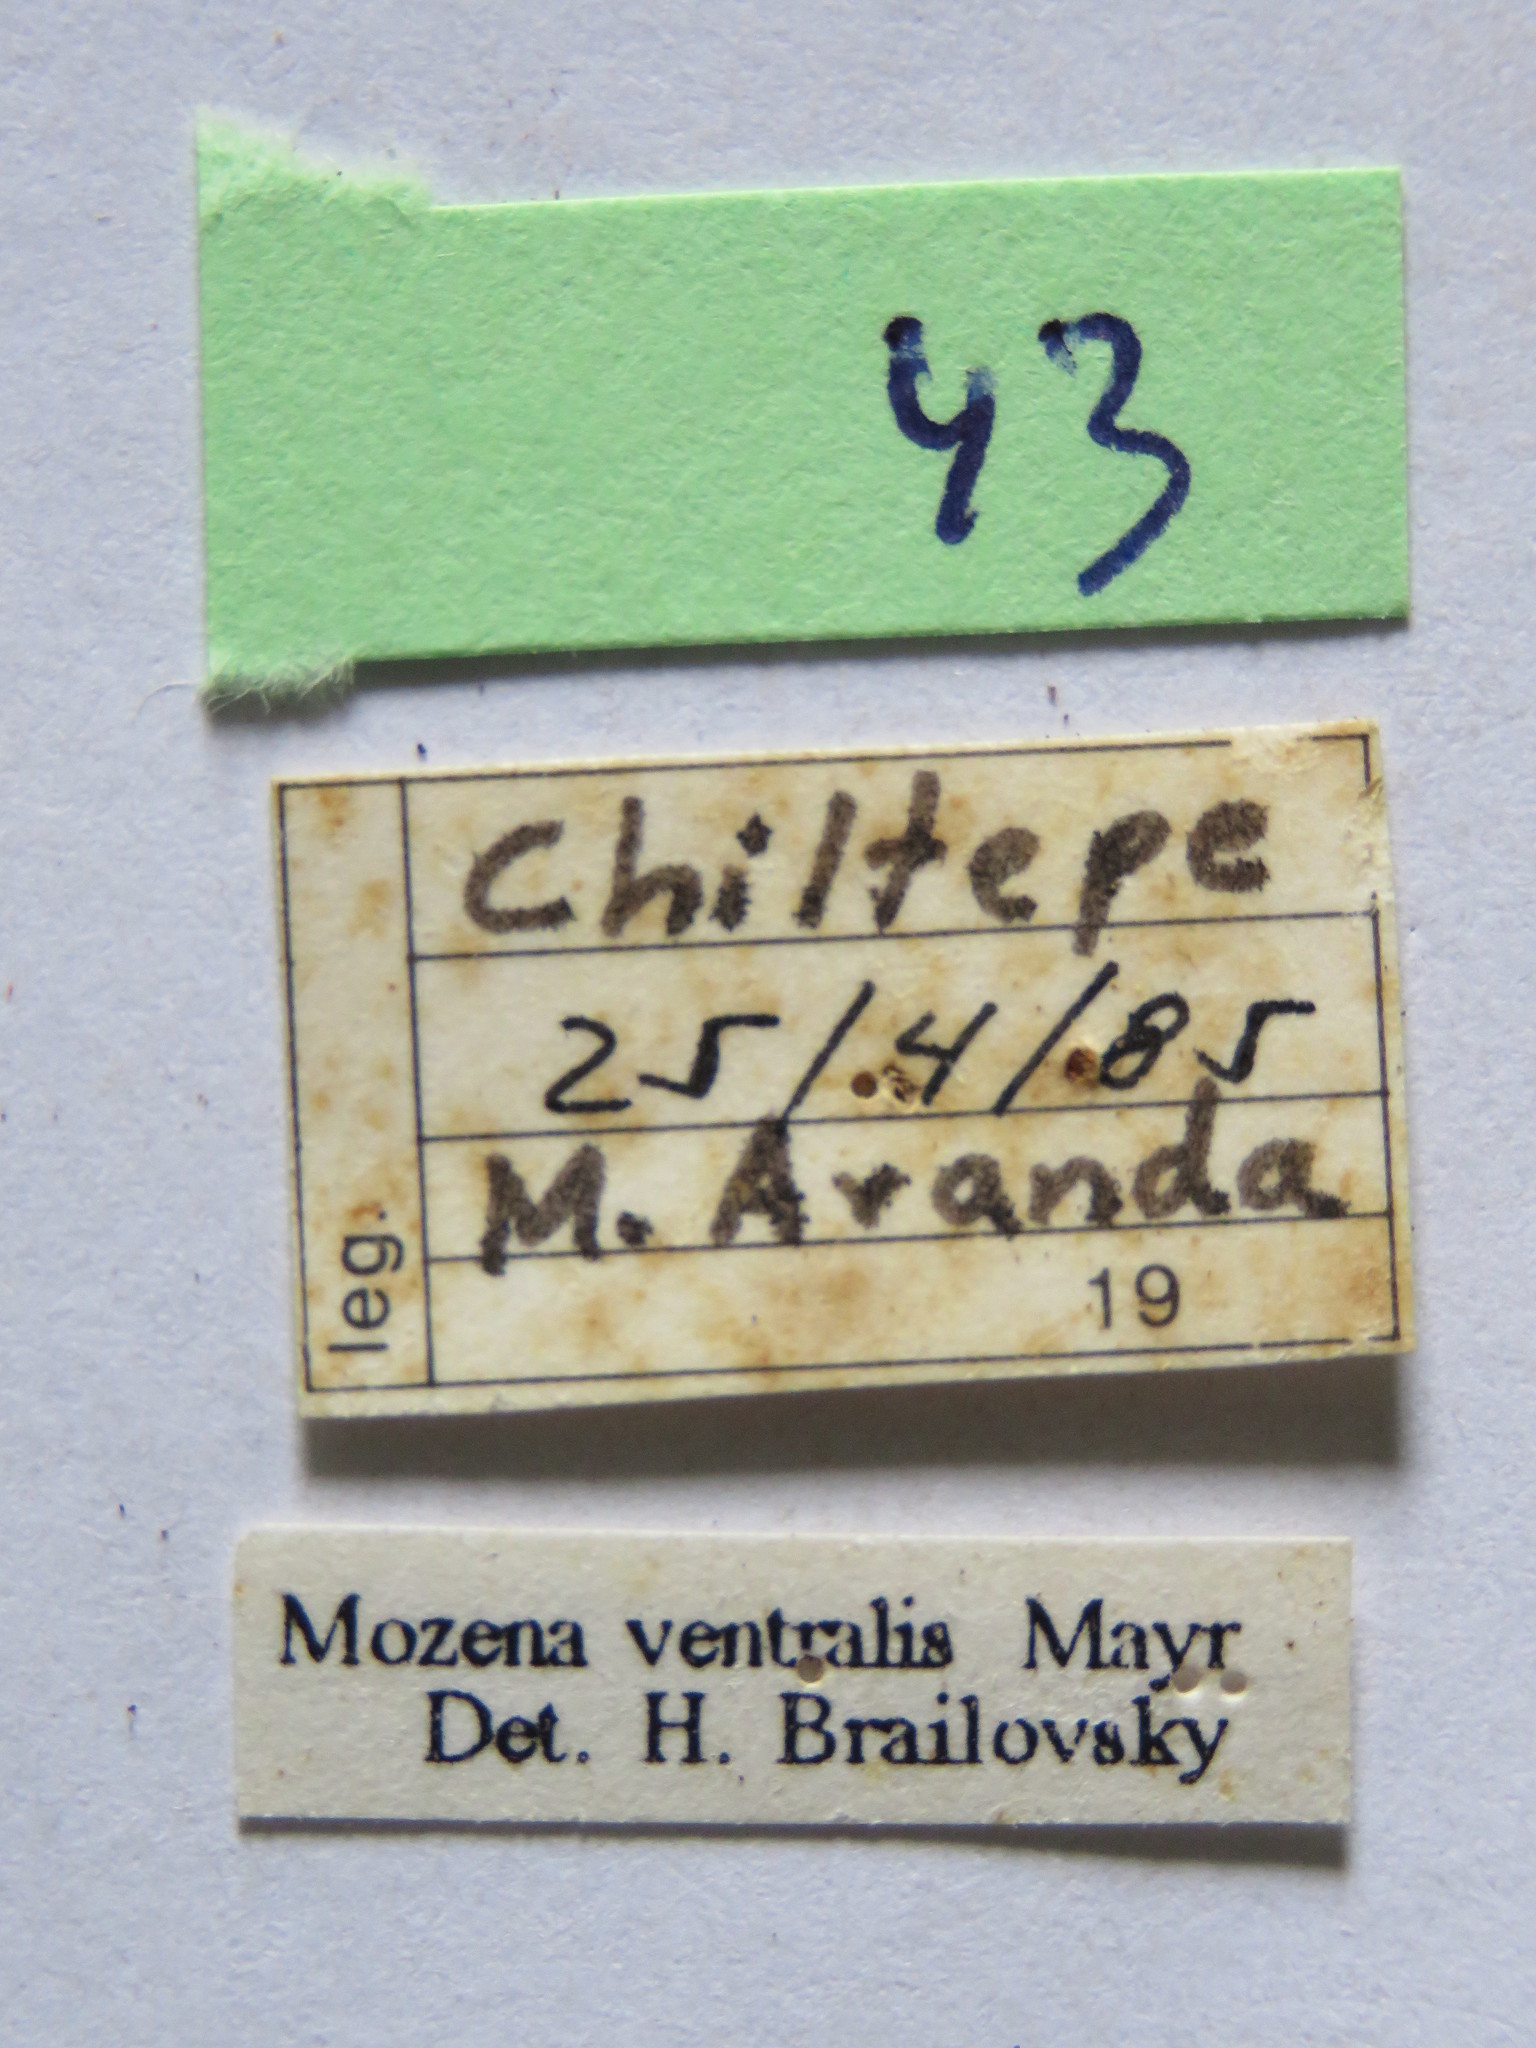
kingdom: Animalia
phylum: Arthropoda
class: Insecta
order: Hemiptera
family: Coreidae
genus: Mozena
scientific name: Mozena ventralis
